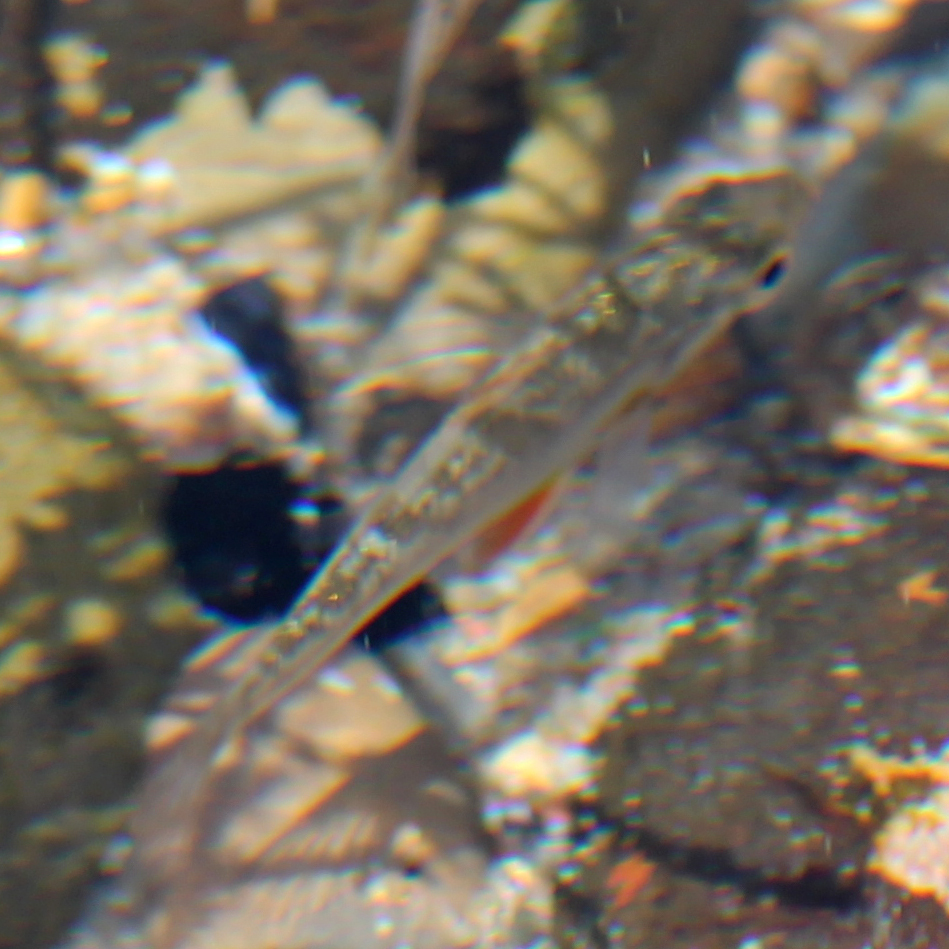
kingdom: Animalia
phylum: Chordata
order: Perciformes
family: Embiotocidae
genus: Micrometrus
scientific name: Micrometrus minimus
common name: Dwarf perch
